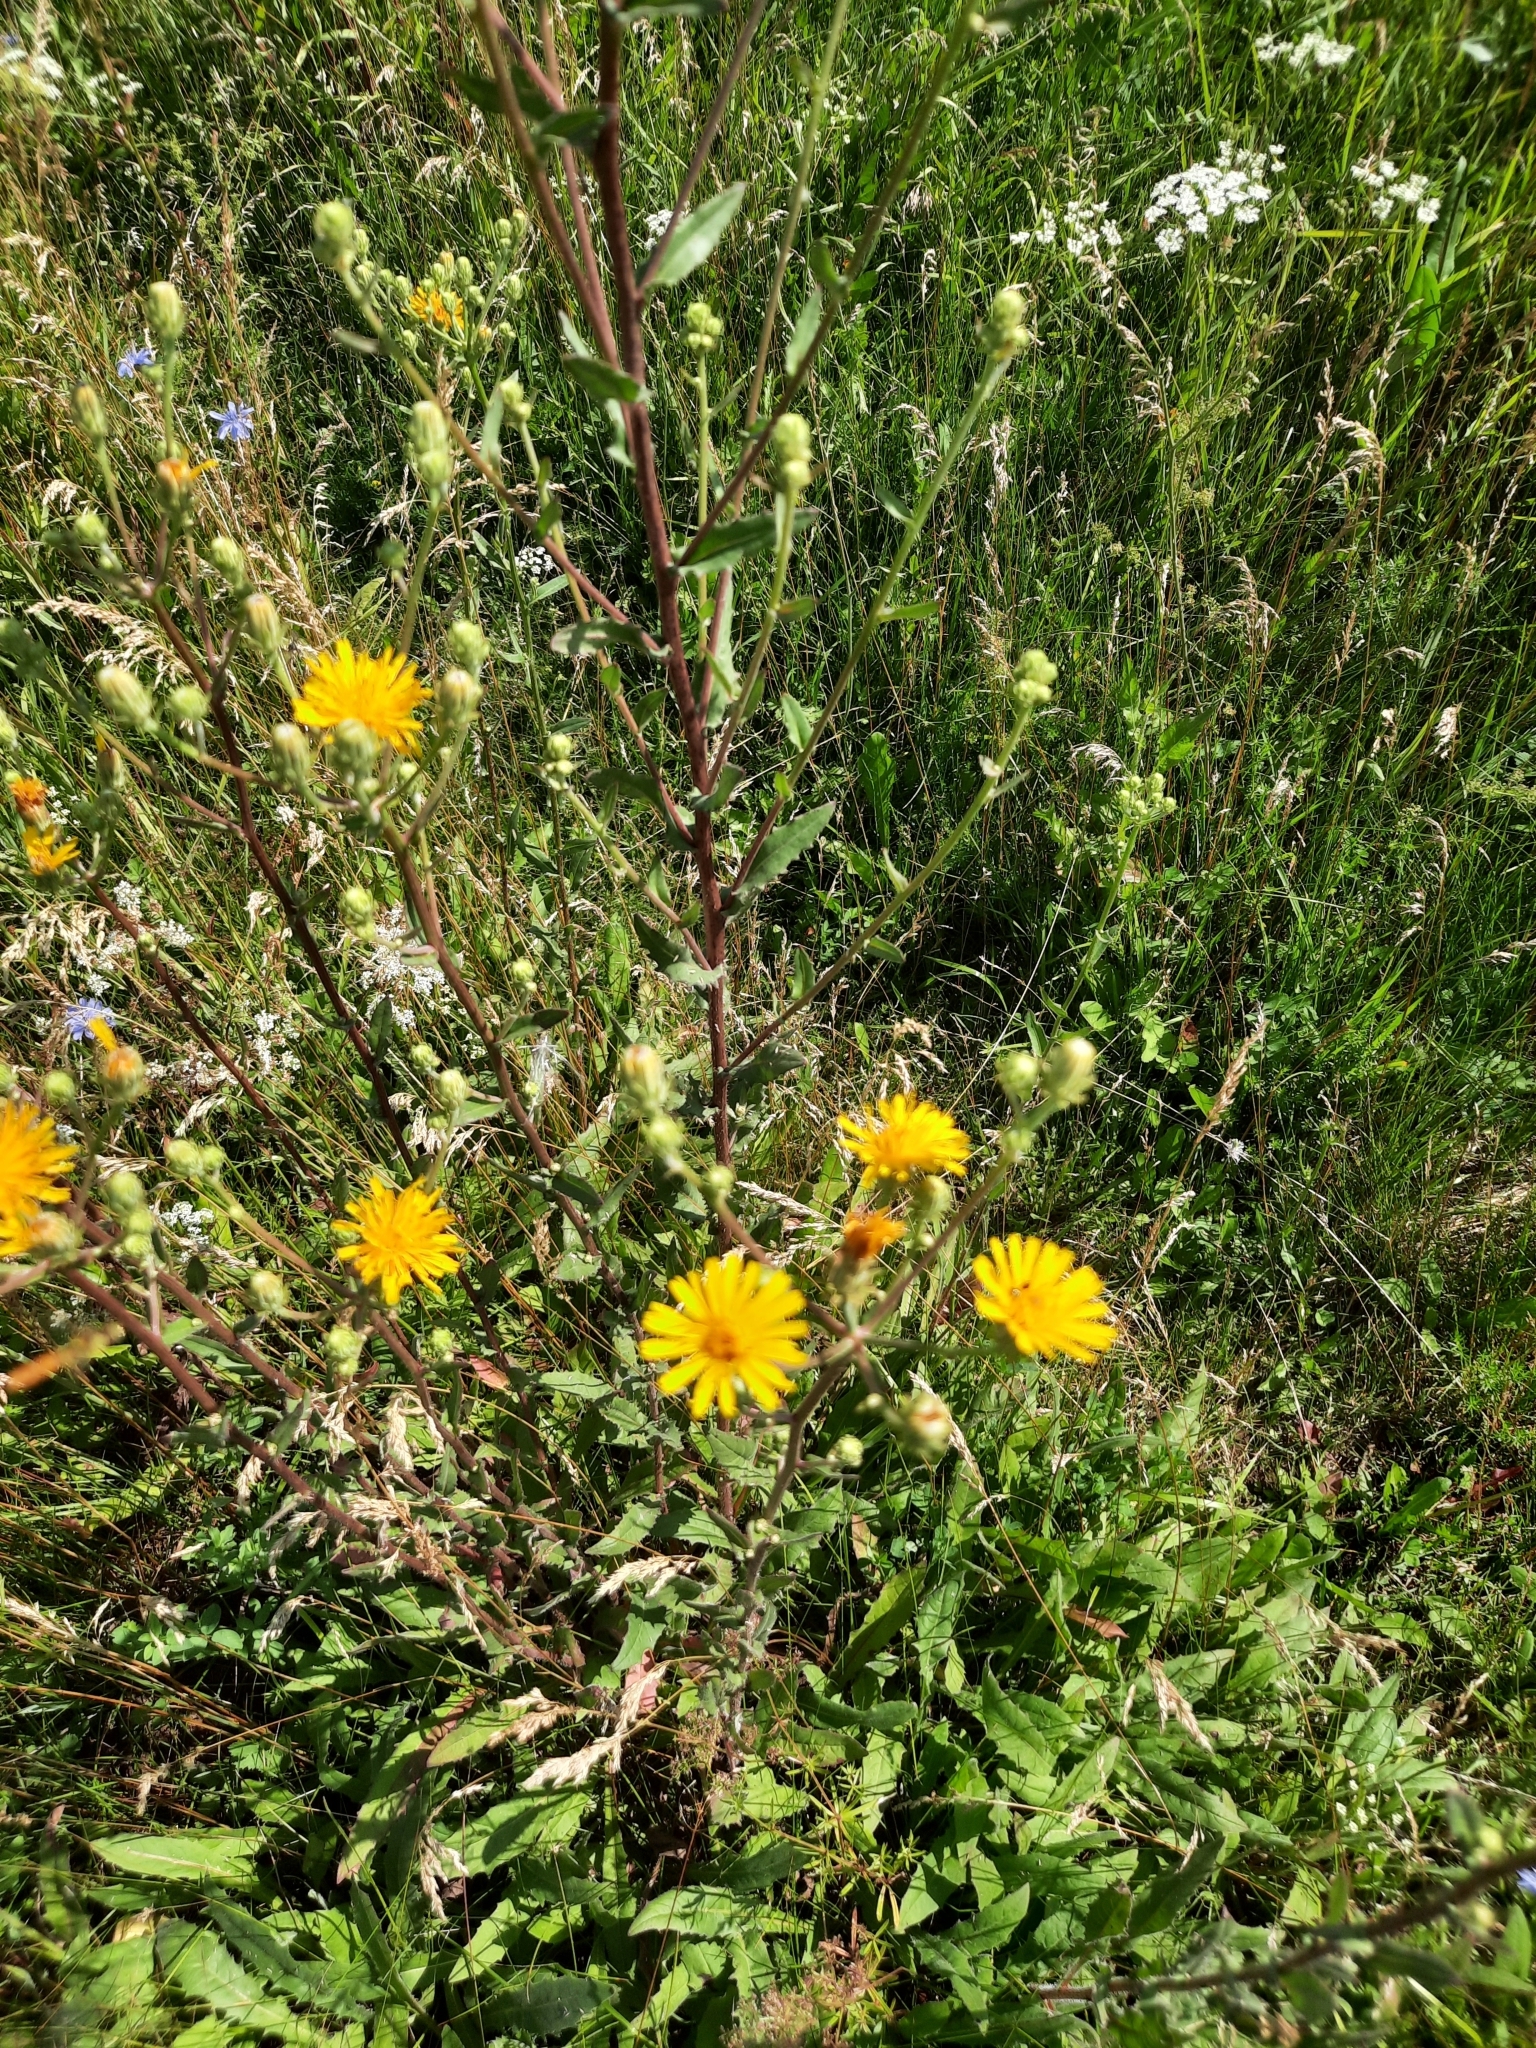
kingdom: Plantae
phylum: Tracheophyta
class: Magnoliopsida
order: Asterales
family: Asteraceae
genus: Picris
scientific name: Picris hieracioides
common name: Hawkweed oxtongue
